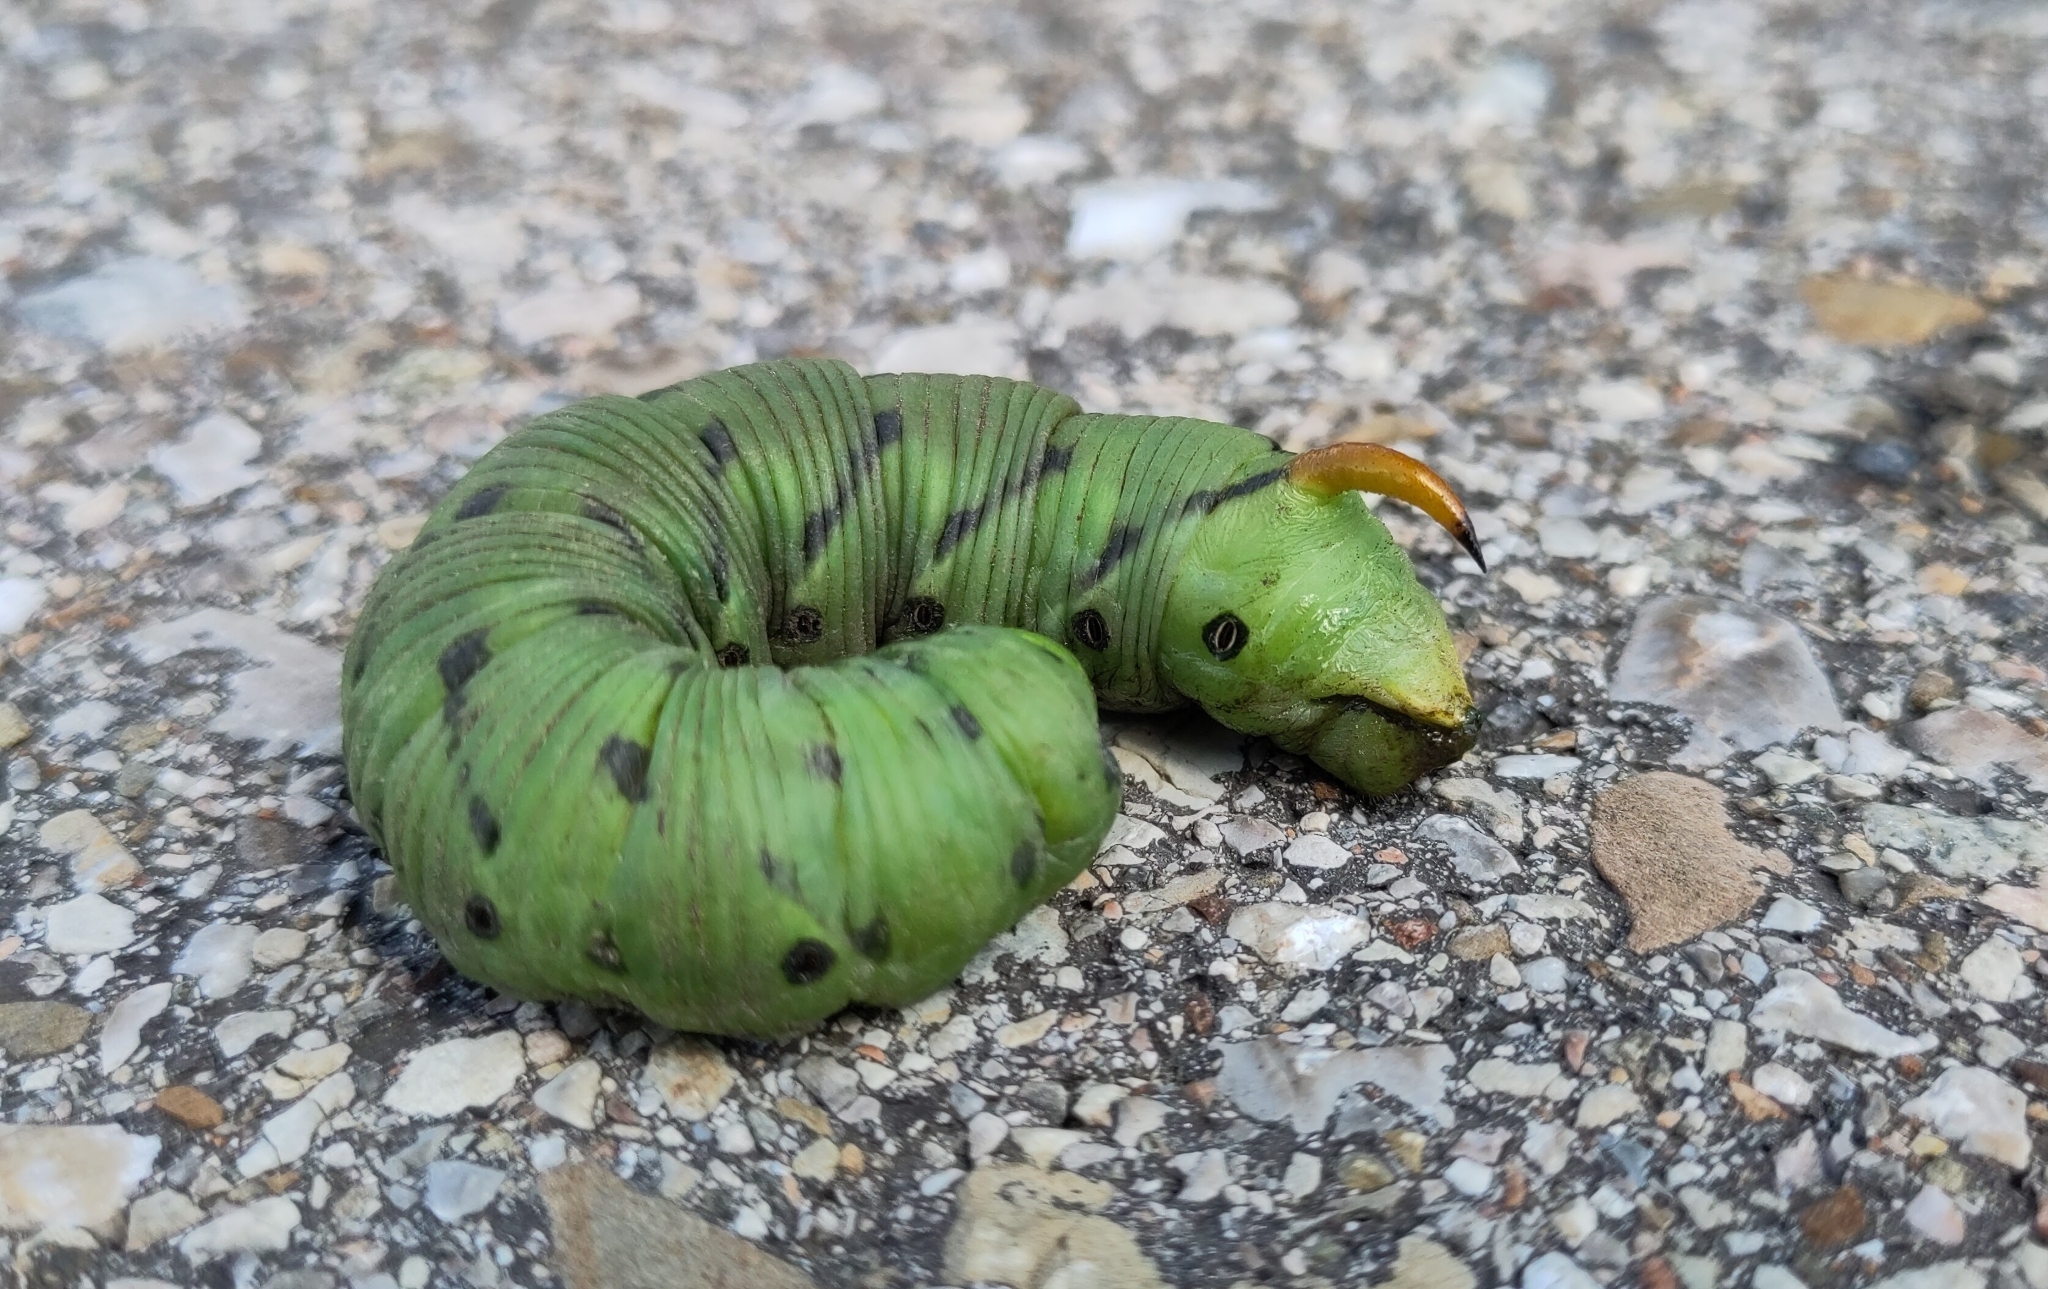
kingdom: Animalia
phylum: Arthropoda
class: Insecta
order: Lepidoptera
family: Sphingidae
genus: Agrius
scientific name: Agrius convolvuli
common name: Convolvulus hawkmoth
